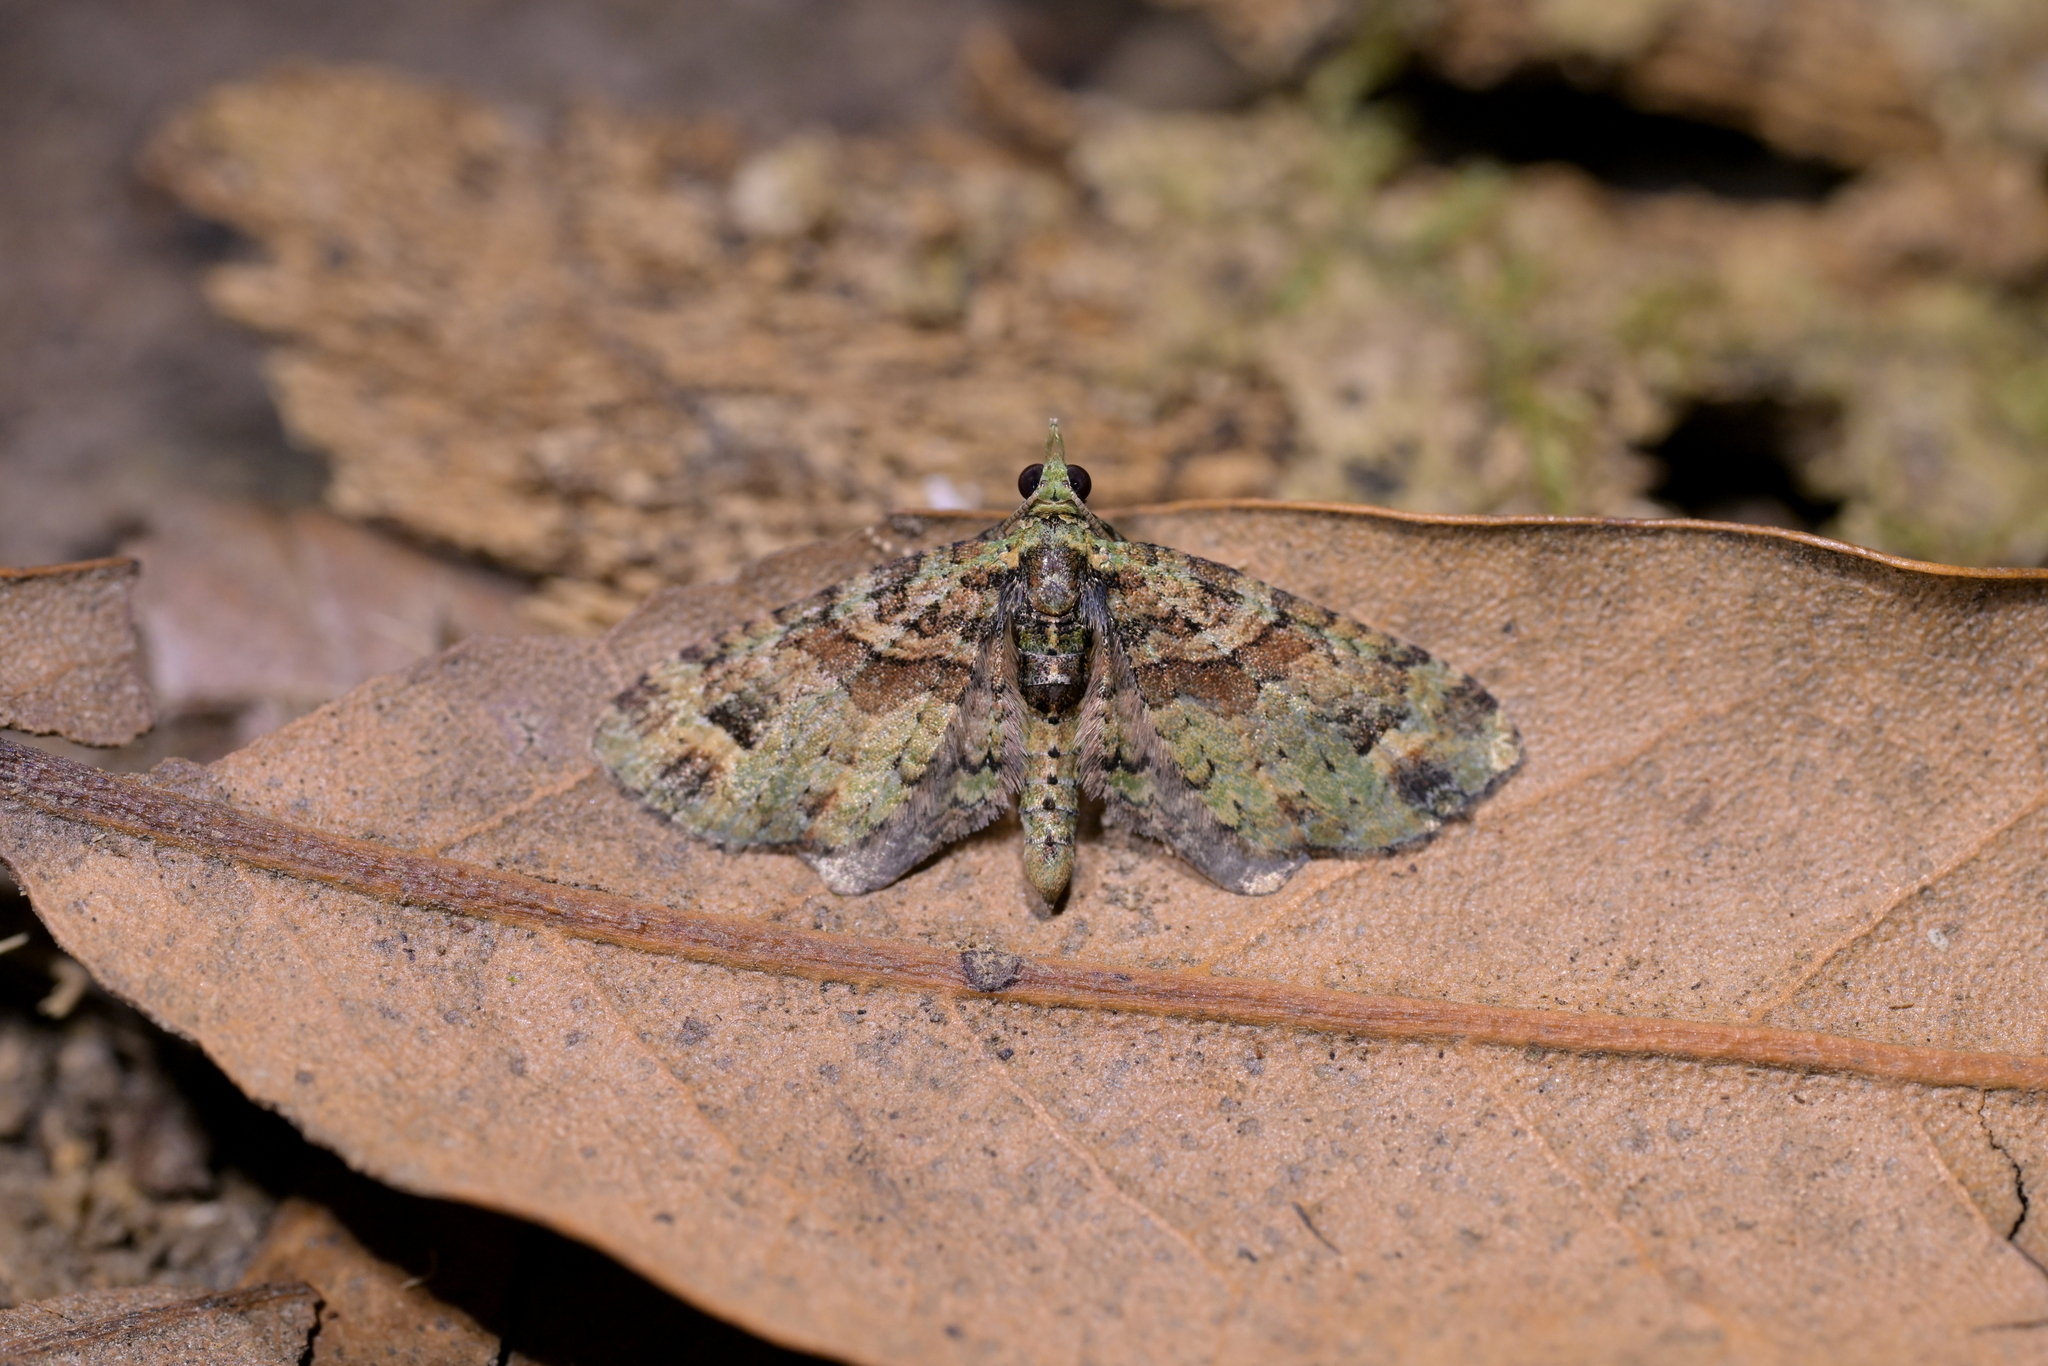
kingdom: Animalia
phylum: Arthropoda
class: Insecta
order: Lepidoptera
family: Geometridae
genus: Idaea
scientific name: Idaea mutanda
